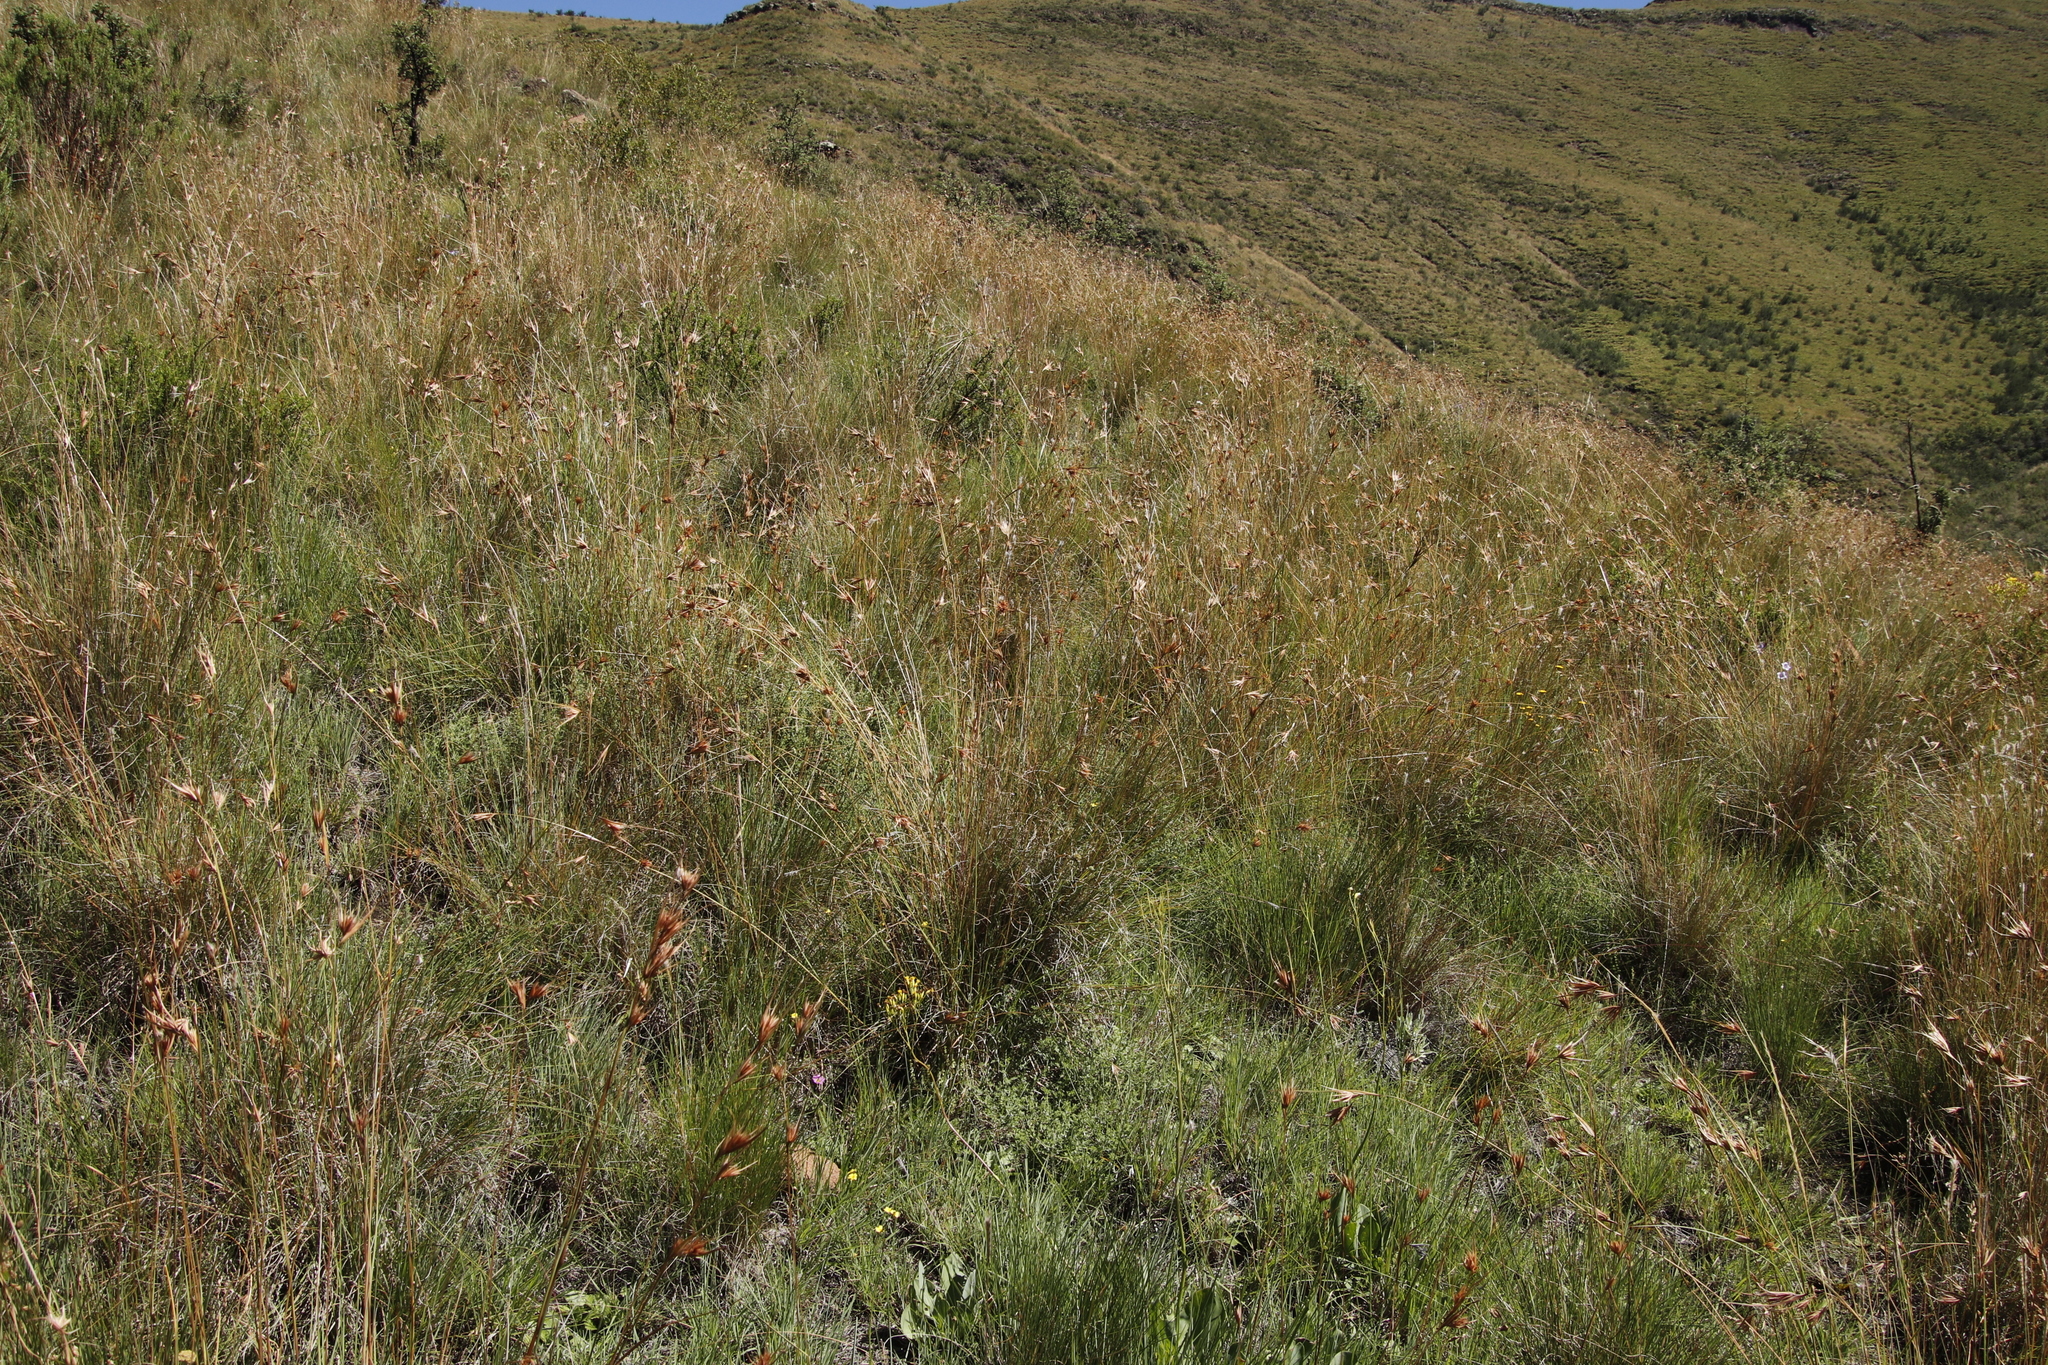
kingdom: Plantae
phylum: Tracheophyta
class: Liliopsida
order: Poales
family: Poaceae
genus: Themeda
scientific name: Themeda triandra
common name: Kangaroo grass
